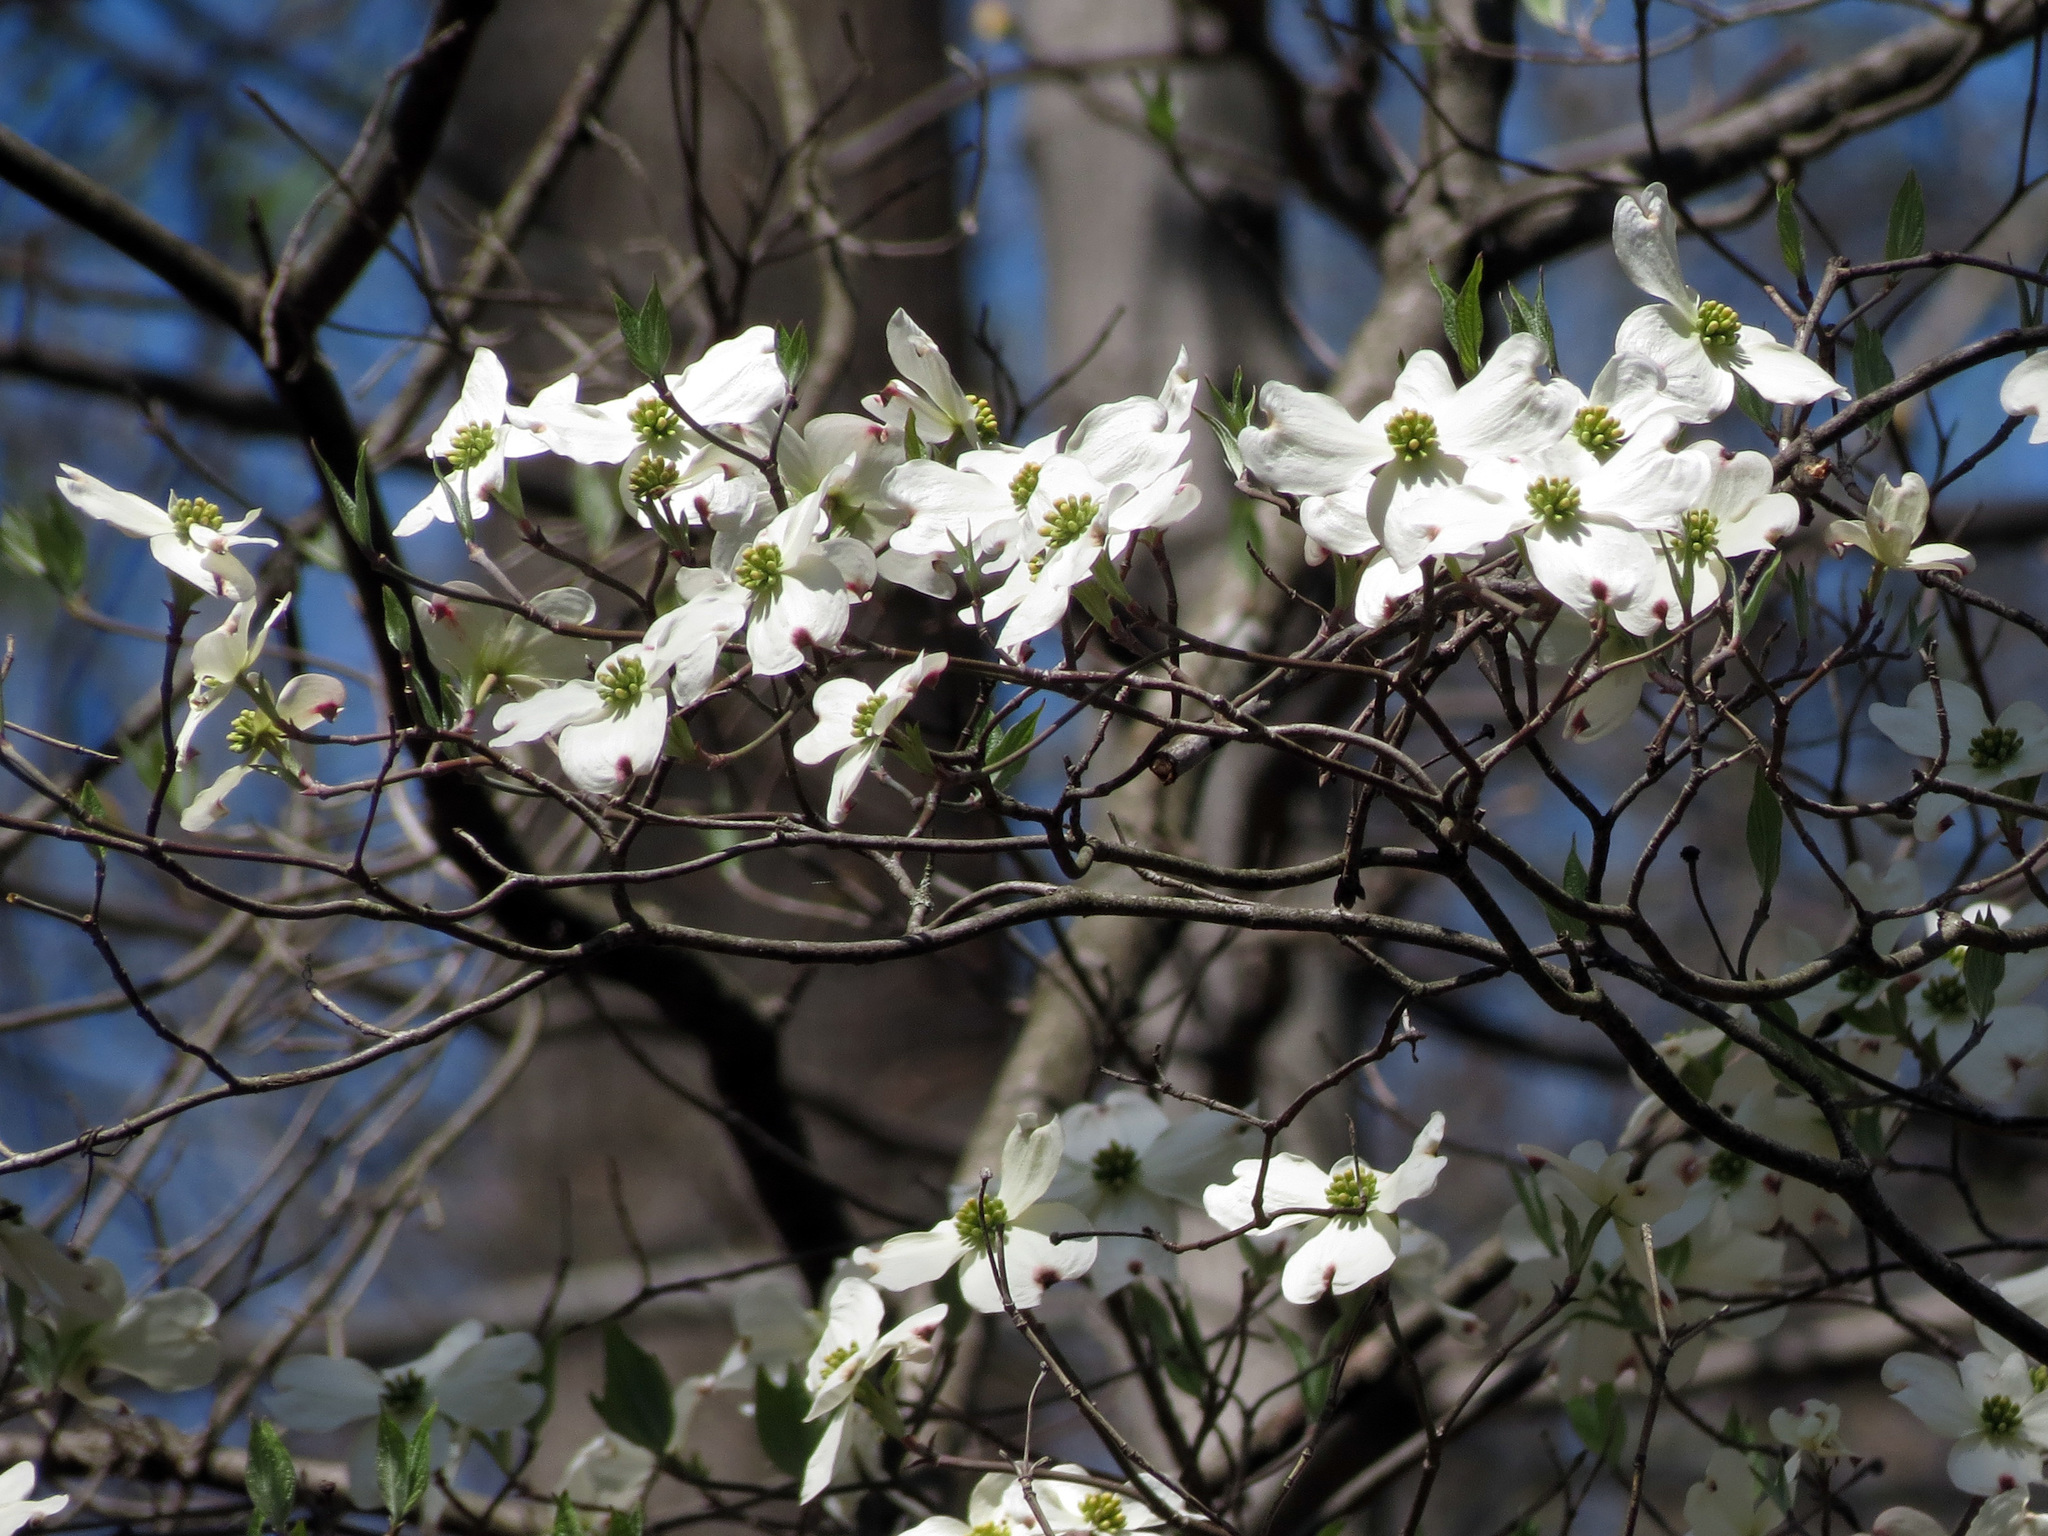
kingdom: Plantae
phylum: Tracheophyta
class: Magnoliopsida
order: Cornales
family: Cornaceae
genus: Cornus
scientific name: Cornus florida
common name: Flowering dogwood
